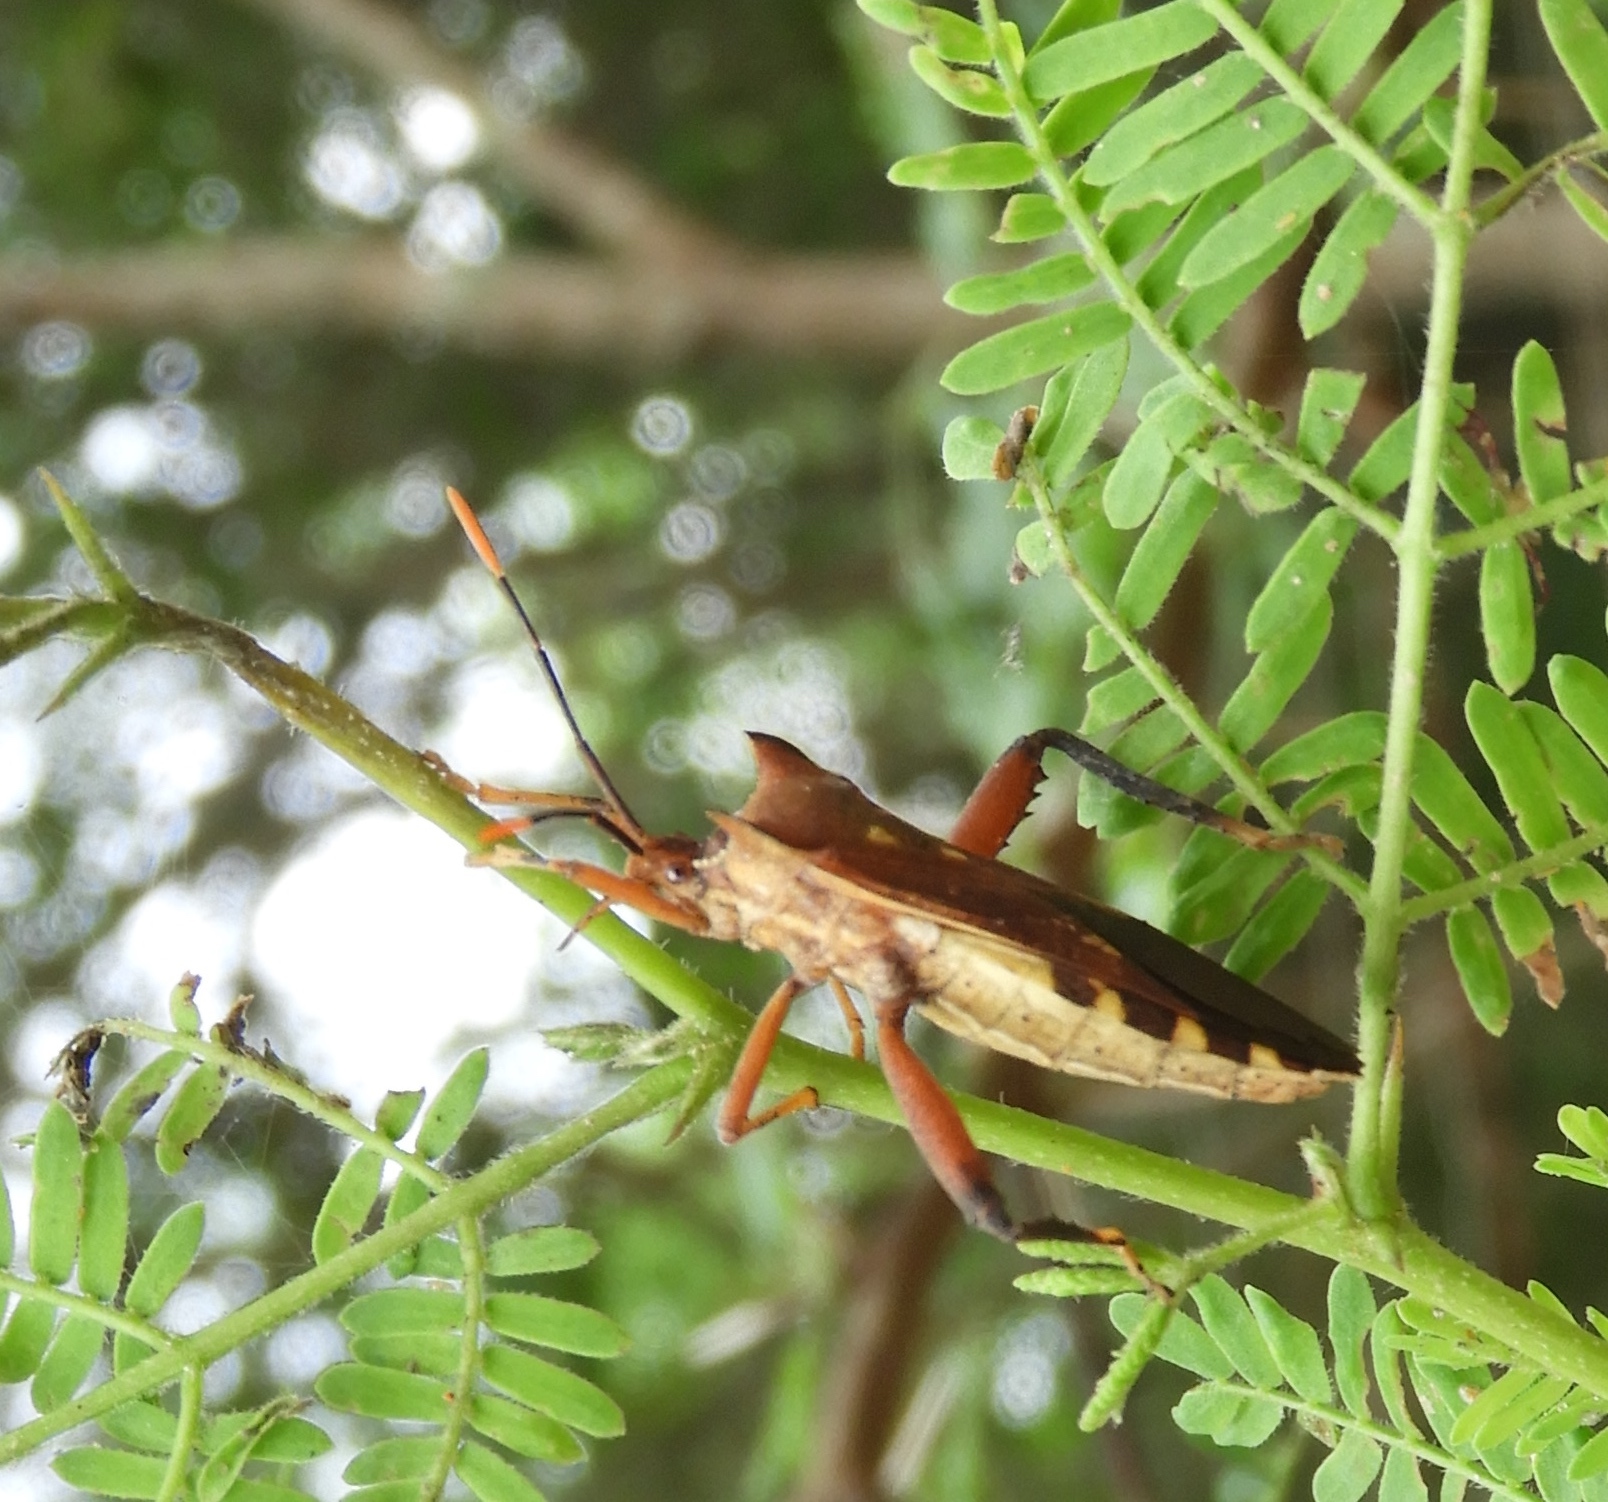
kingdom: Animalia
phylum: Arthropoda
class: Insecta
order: Hemiptera
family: Coreidae
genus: Mozena
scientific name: Mozena
